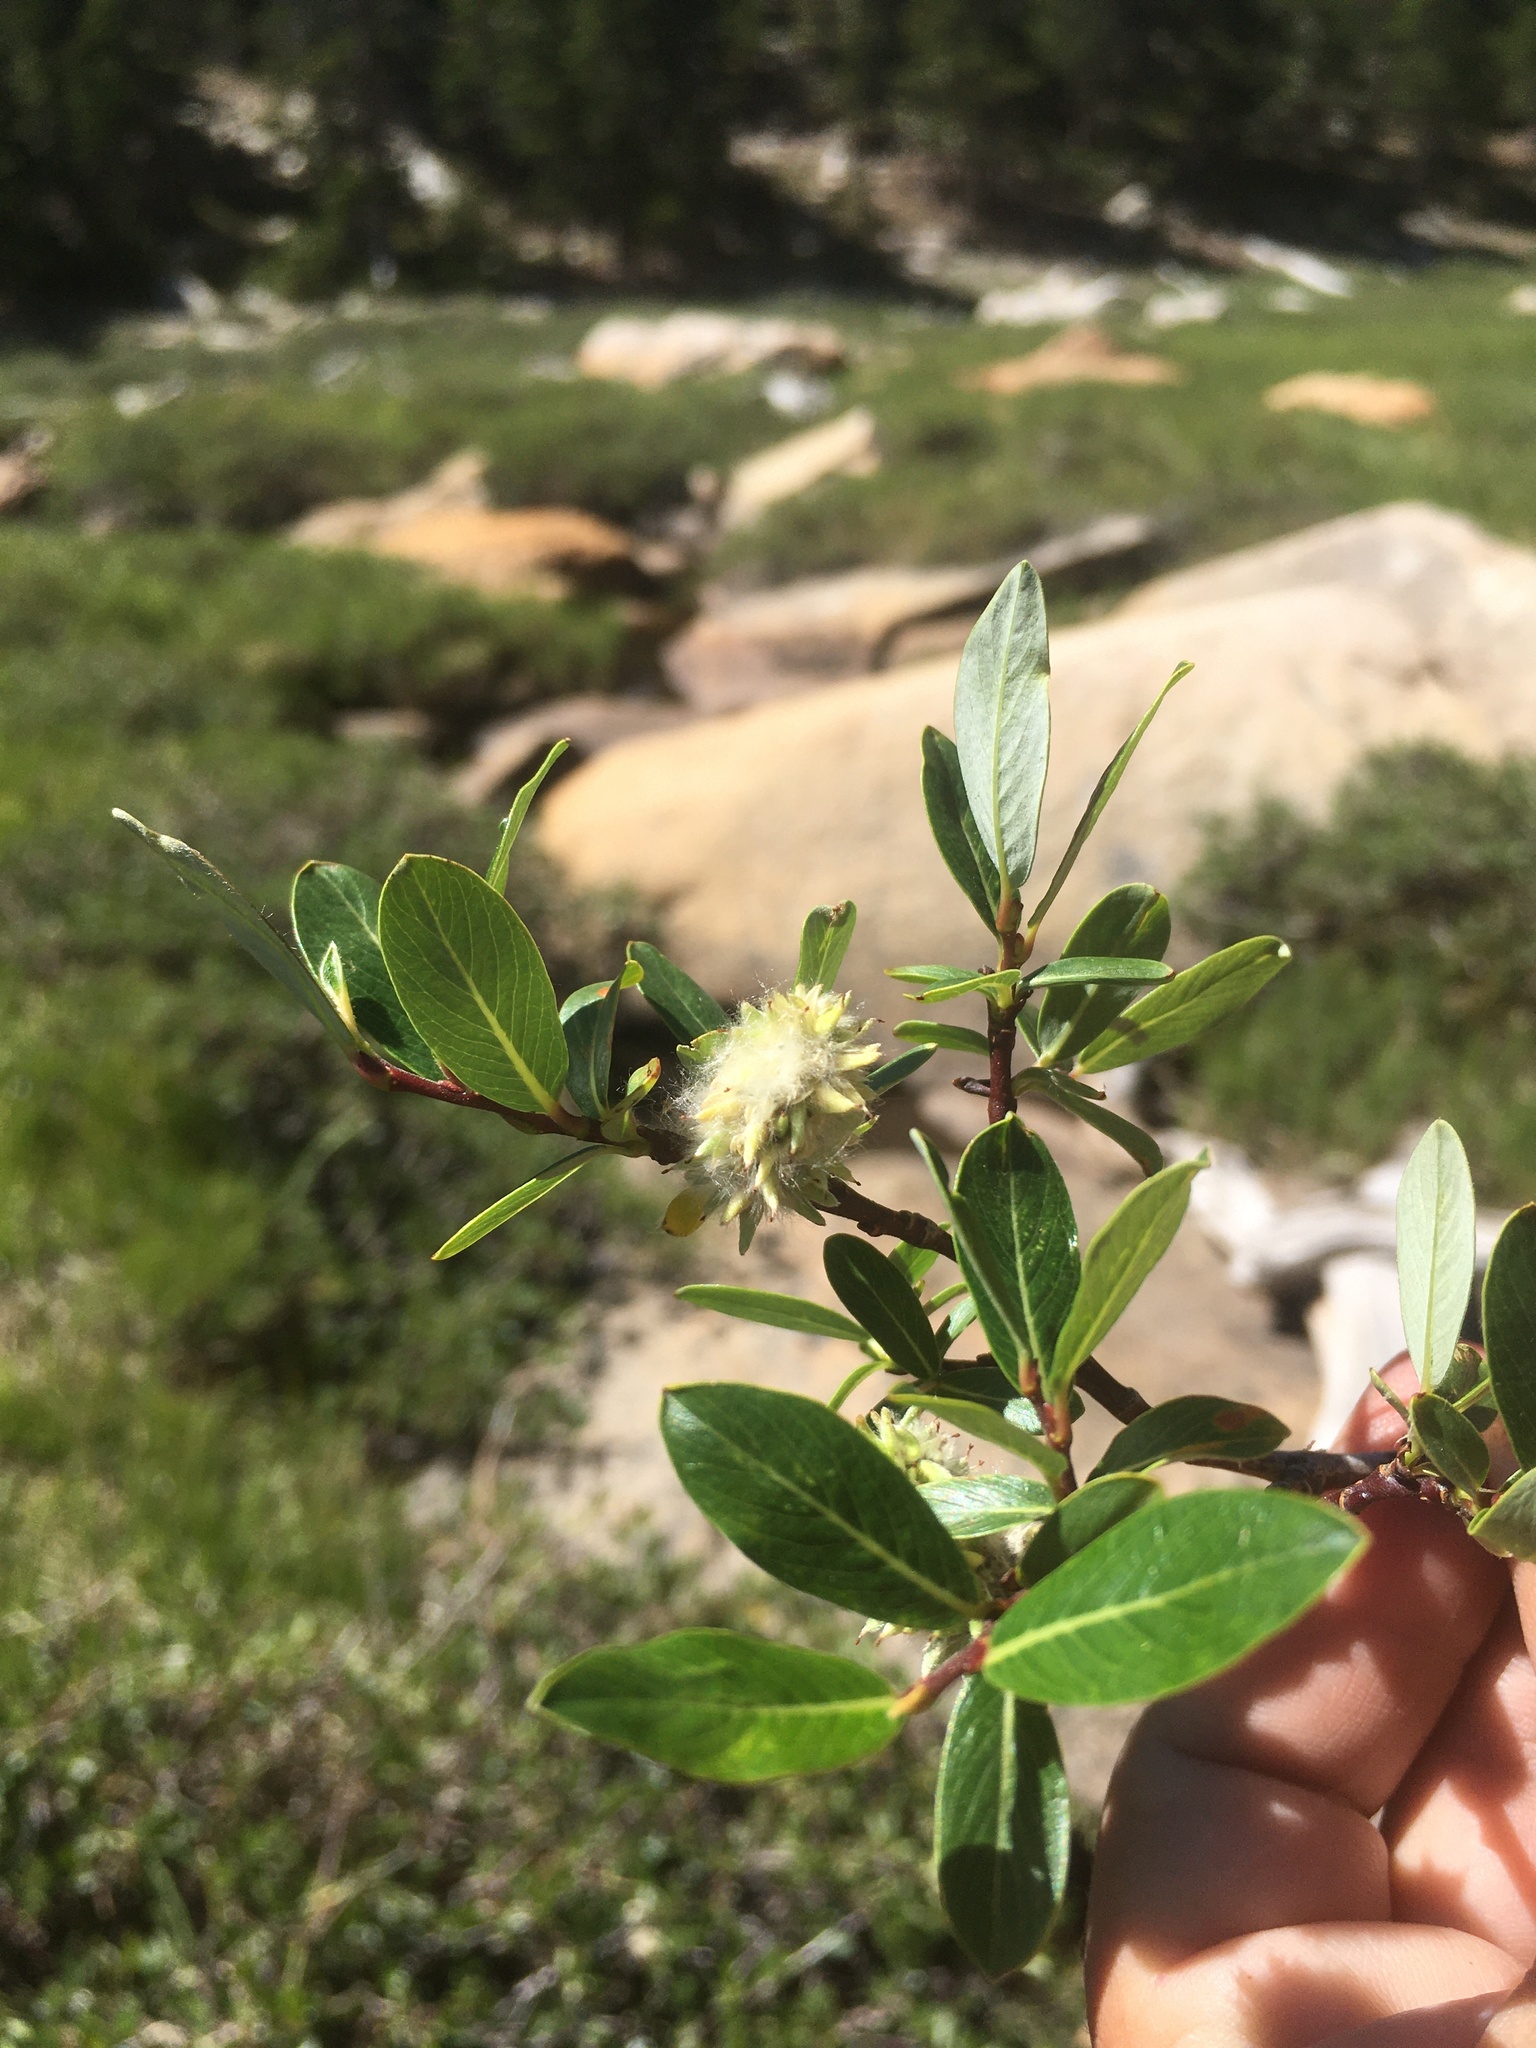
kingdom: Plantae
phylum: Tracheophyta
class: Magnoliopsida
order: Malpighiales
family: Salicaceae
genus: Salix
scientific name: Salix planifolia
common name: Mountain willow
